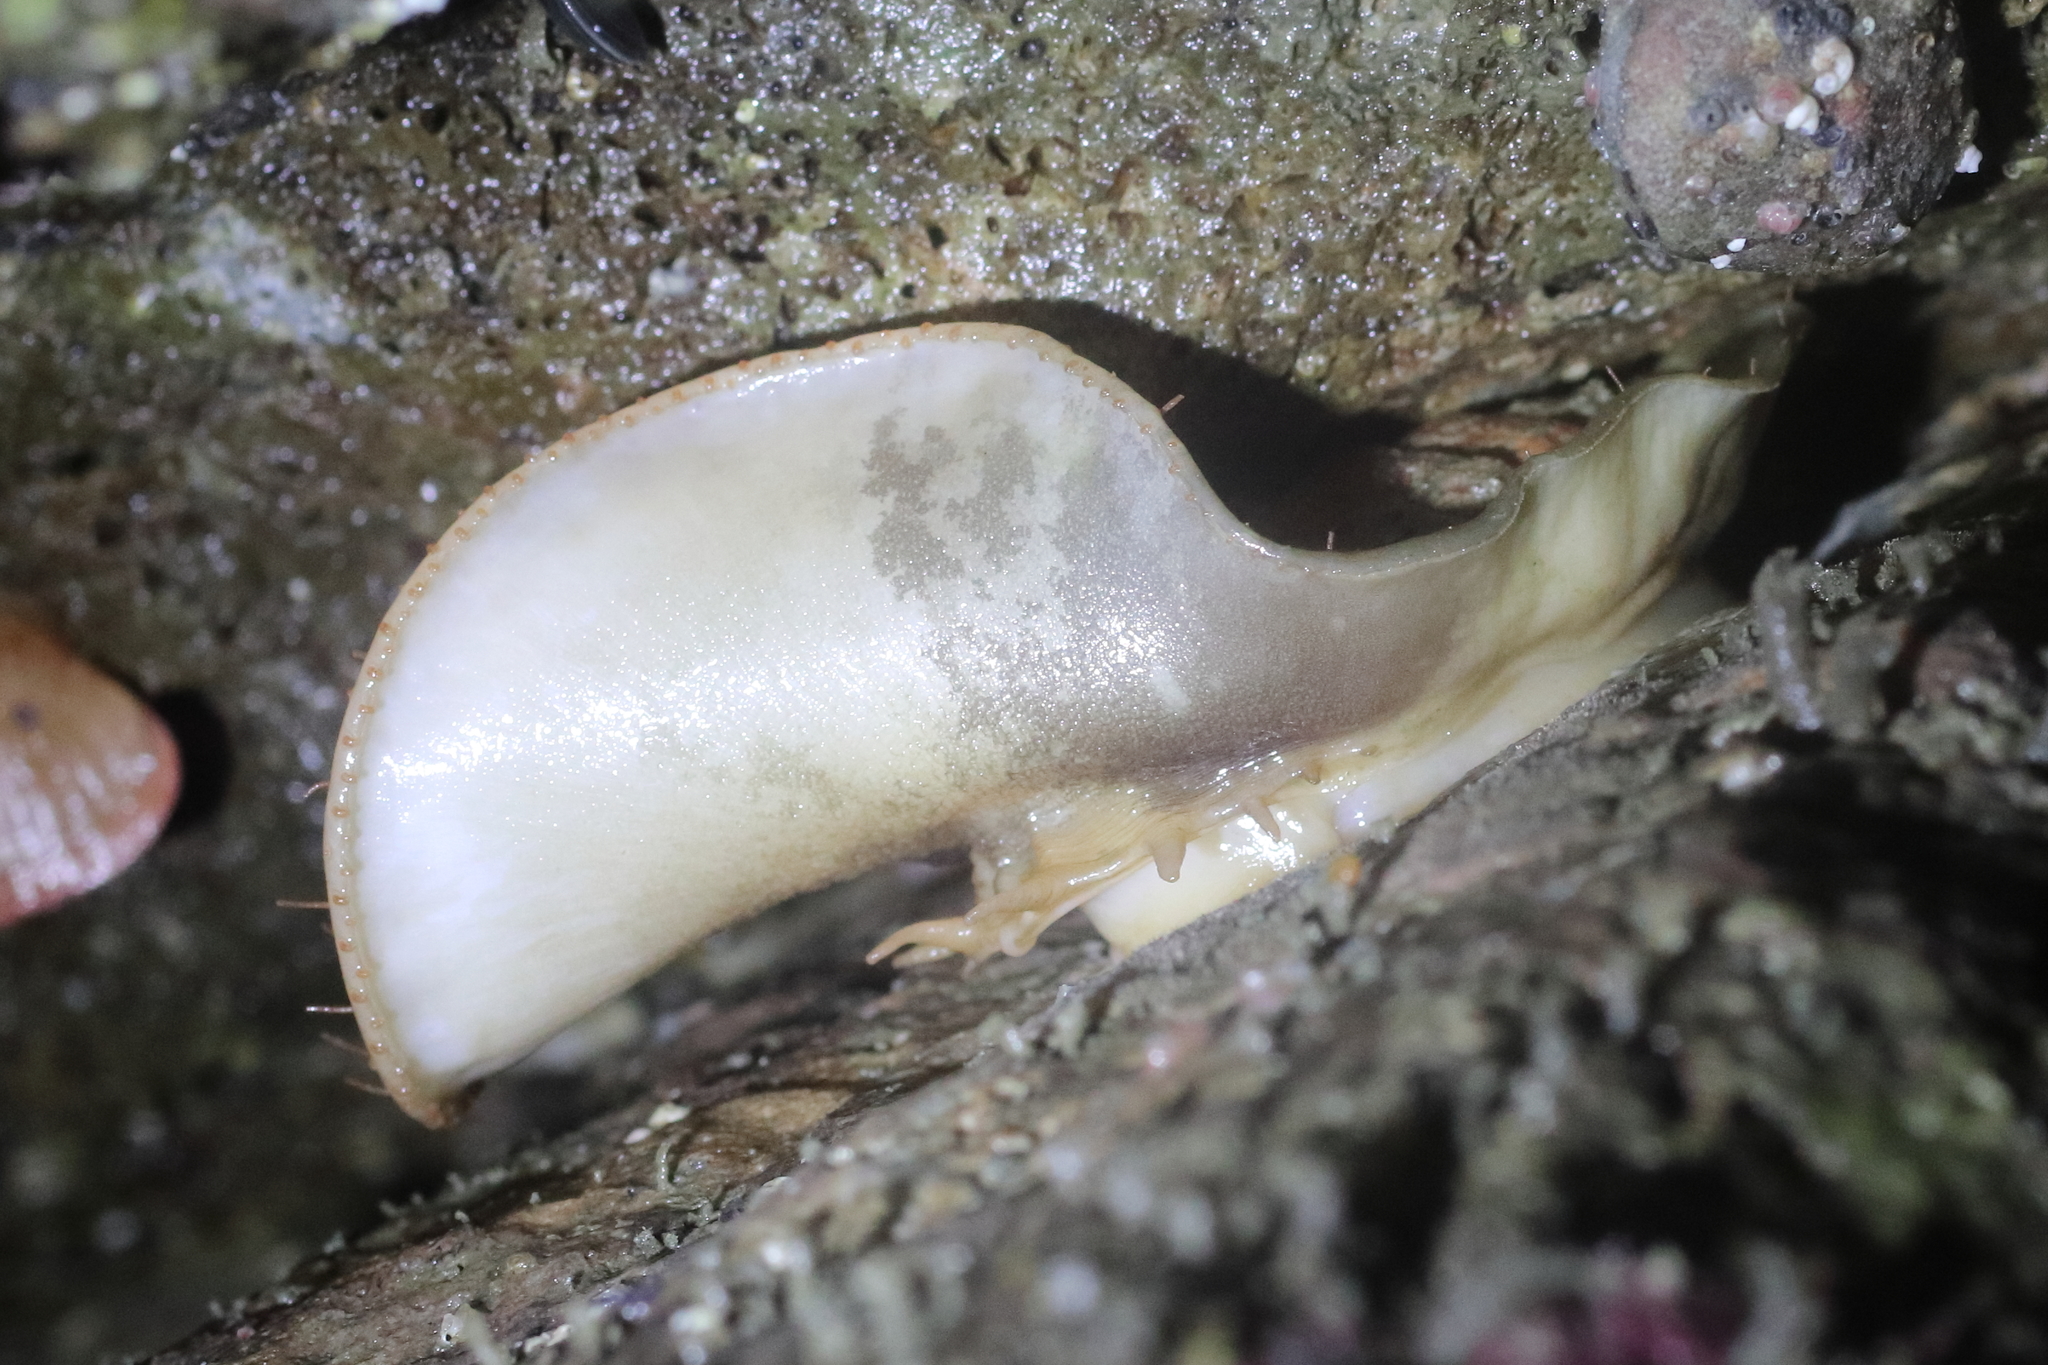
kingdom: Animalia
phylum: Mollusca
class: Polyplacophora
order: Chitonida
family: Mopaliidae
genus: Placiphorella
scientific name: Placiphorella rufa
